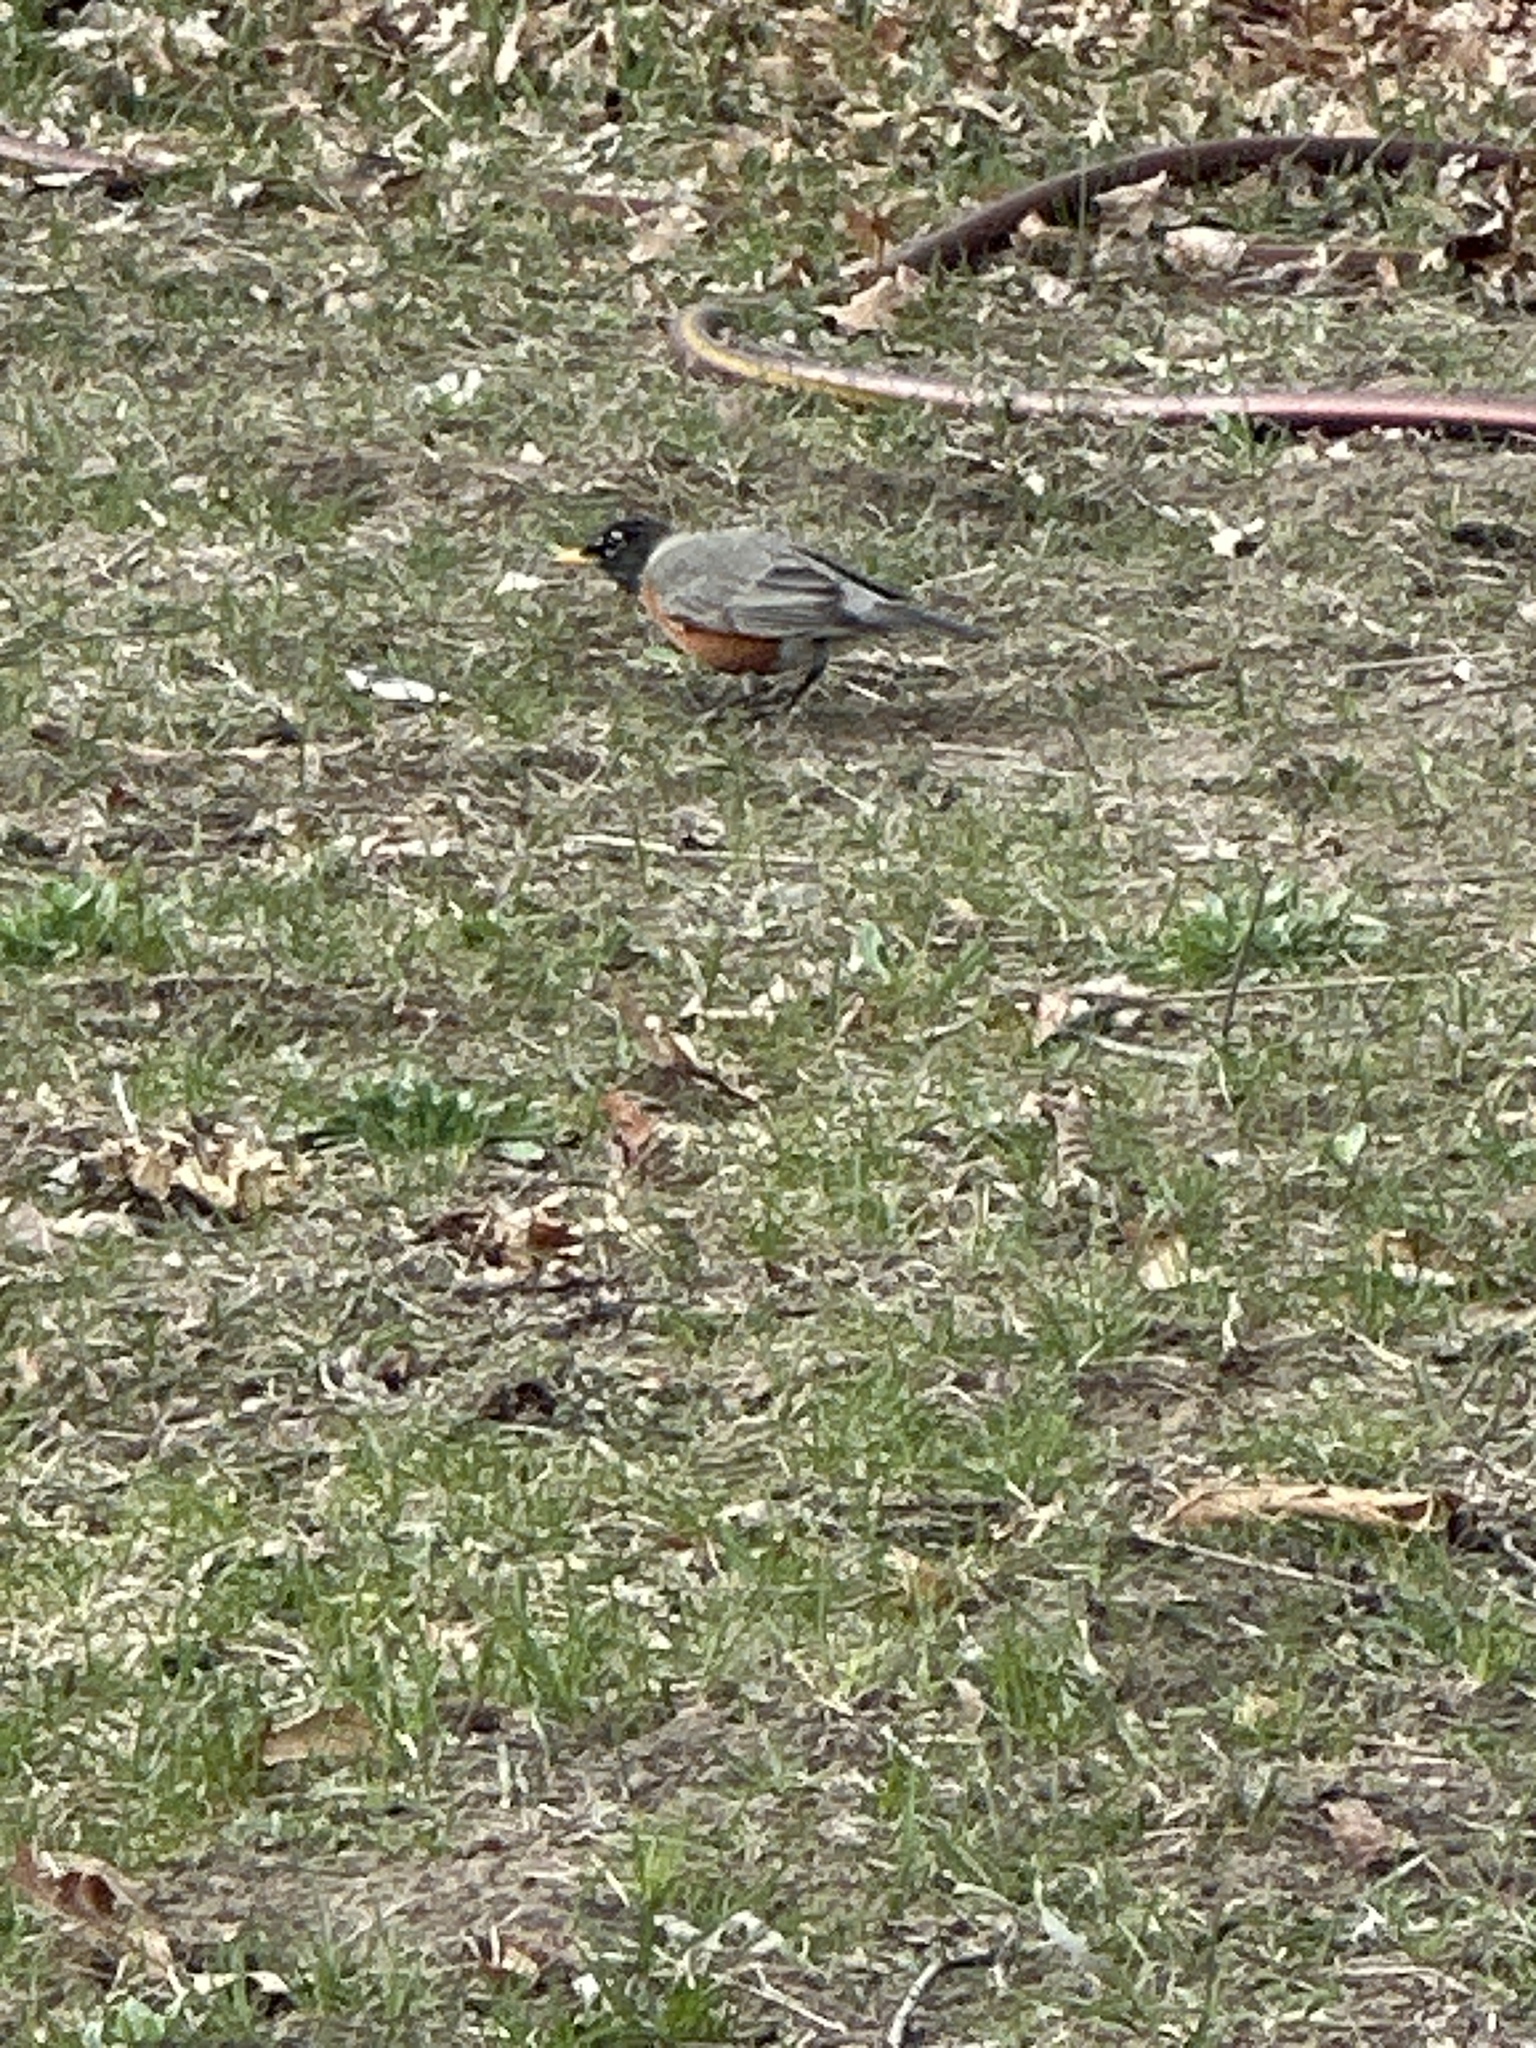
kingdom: Animalia
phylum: Chordata
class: Aves
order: Passeriformes
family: Turdidae
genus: Turdus
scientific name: Turdus migratorius
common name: American robin
